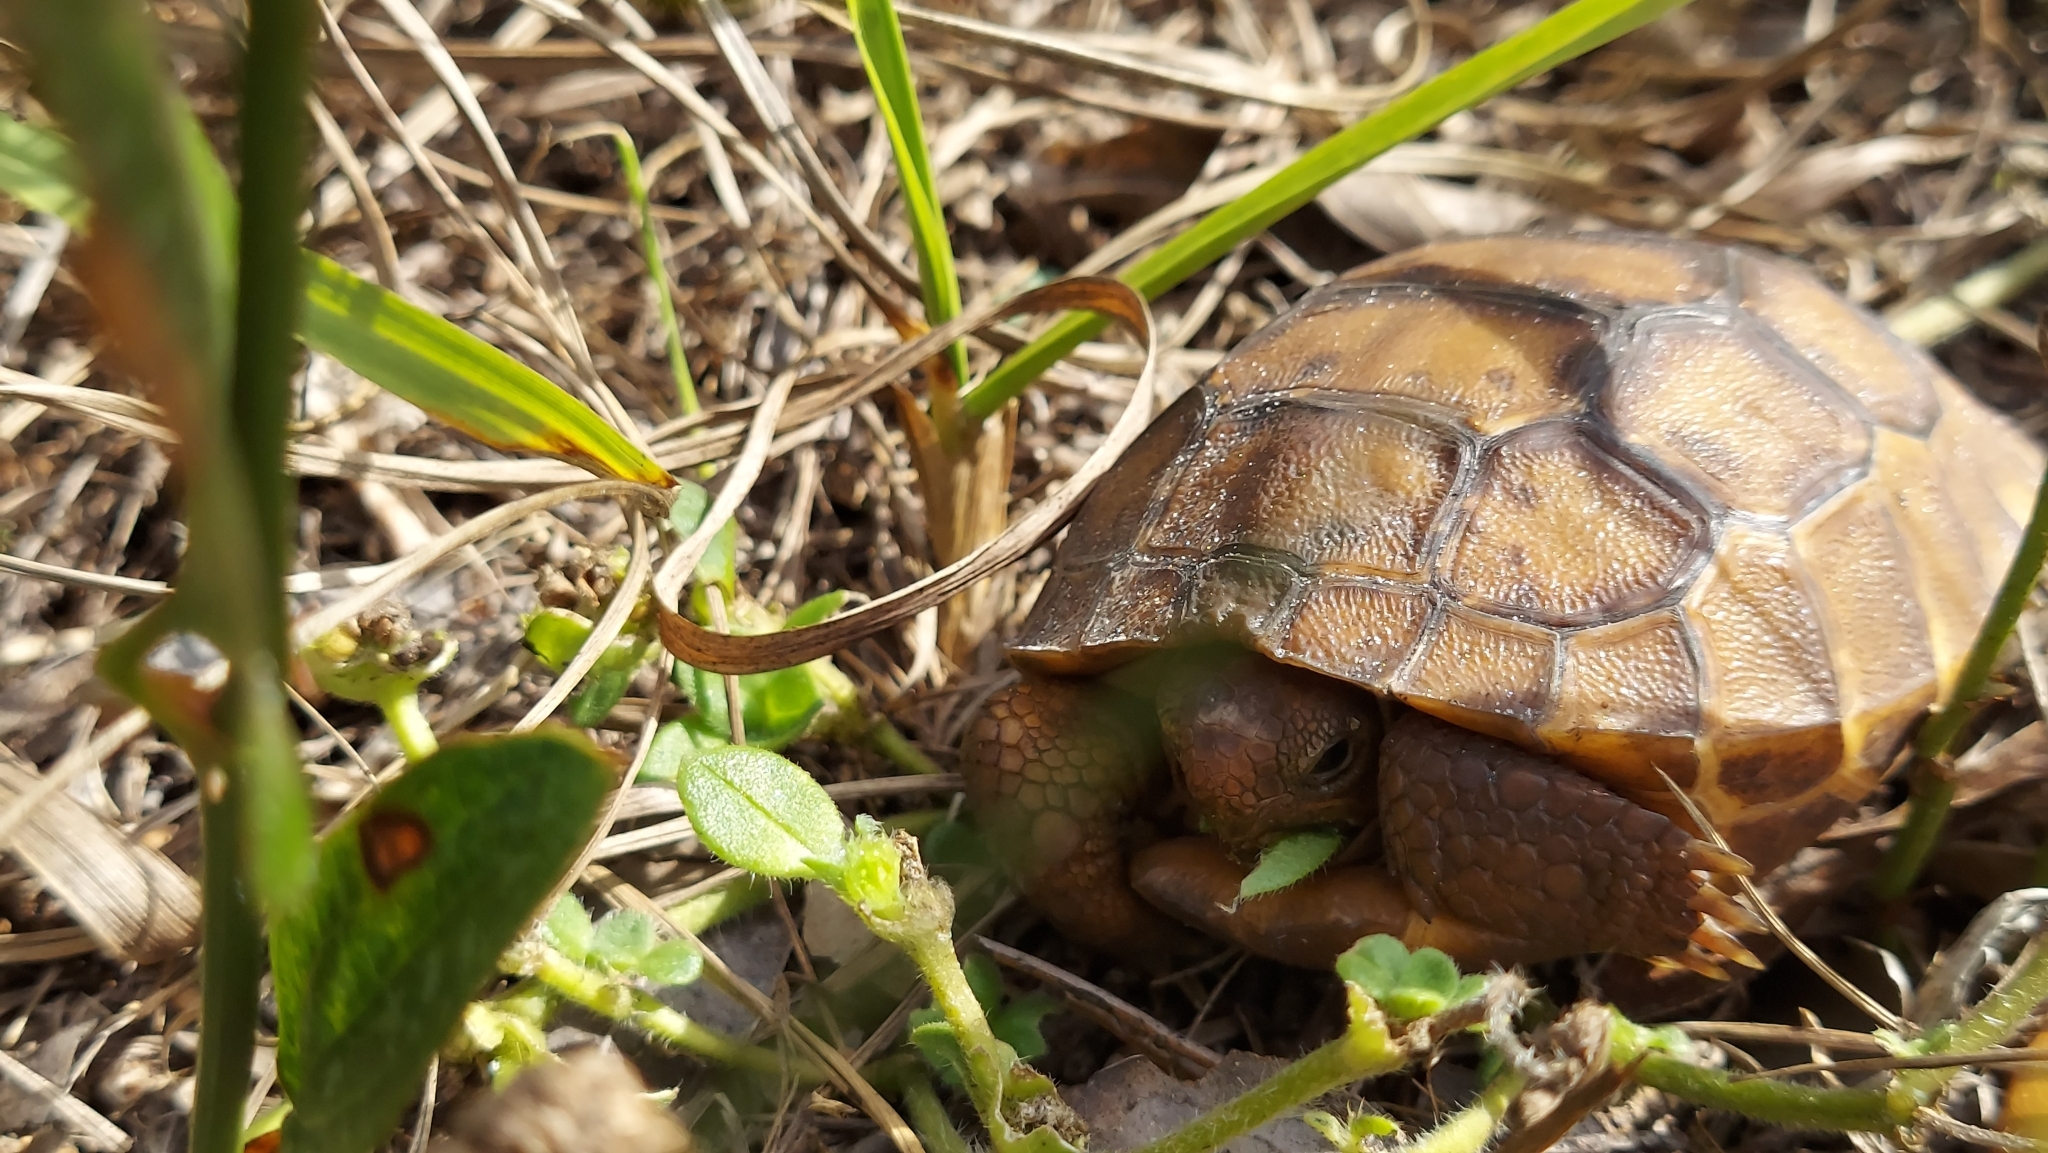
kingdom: Animalia
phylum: Chordata
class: Testudines
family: Testudinidae
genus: Gopherus
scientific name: Gopherus polyphemus
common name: Florida gopher tortoise
